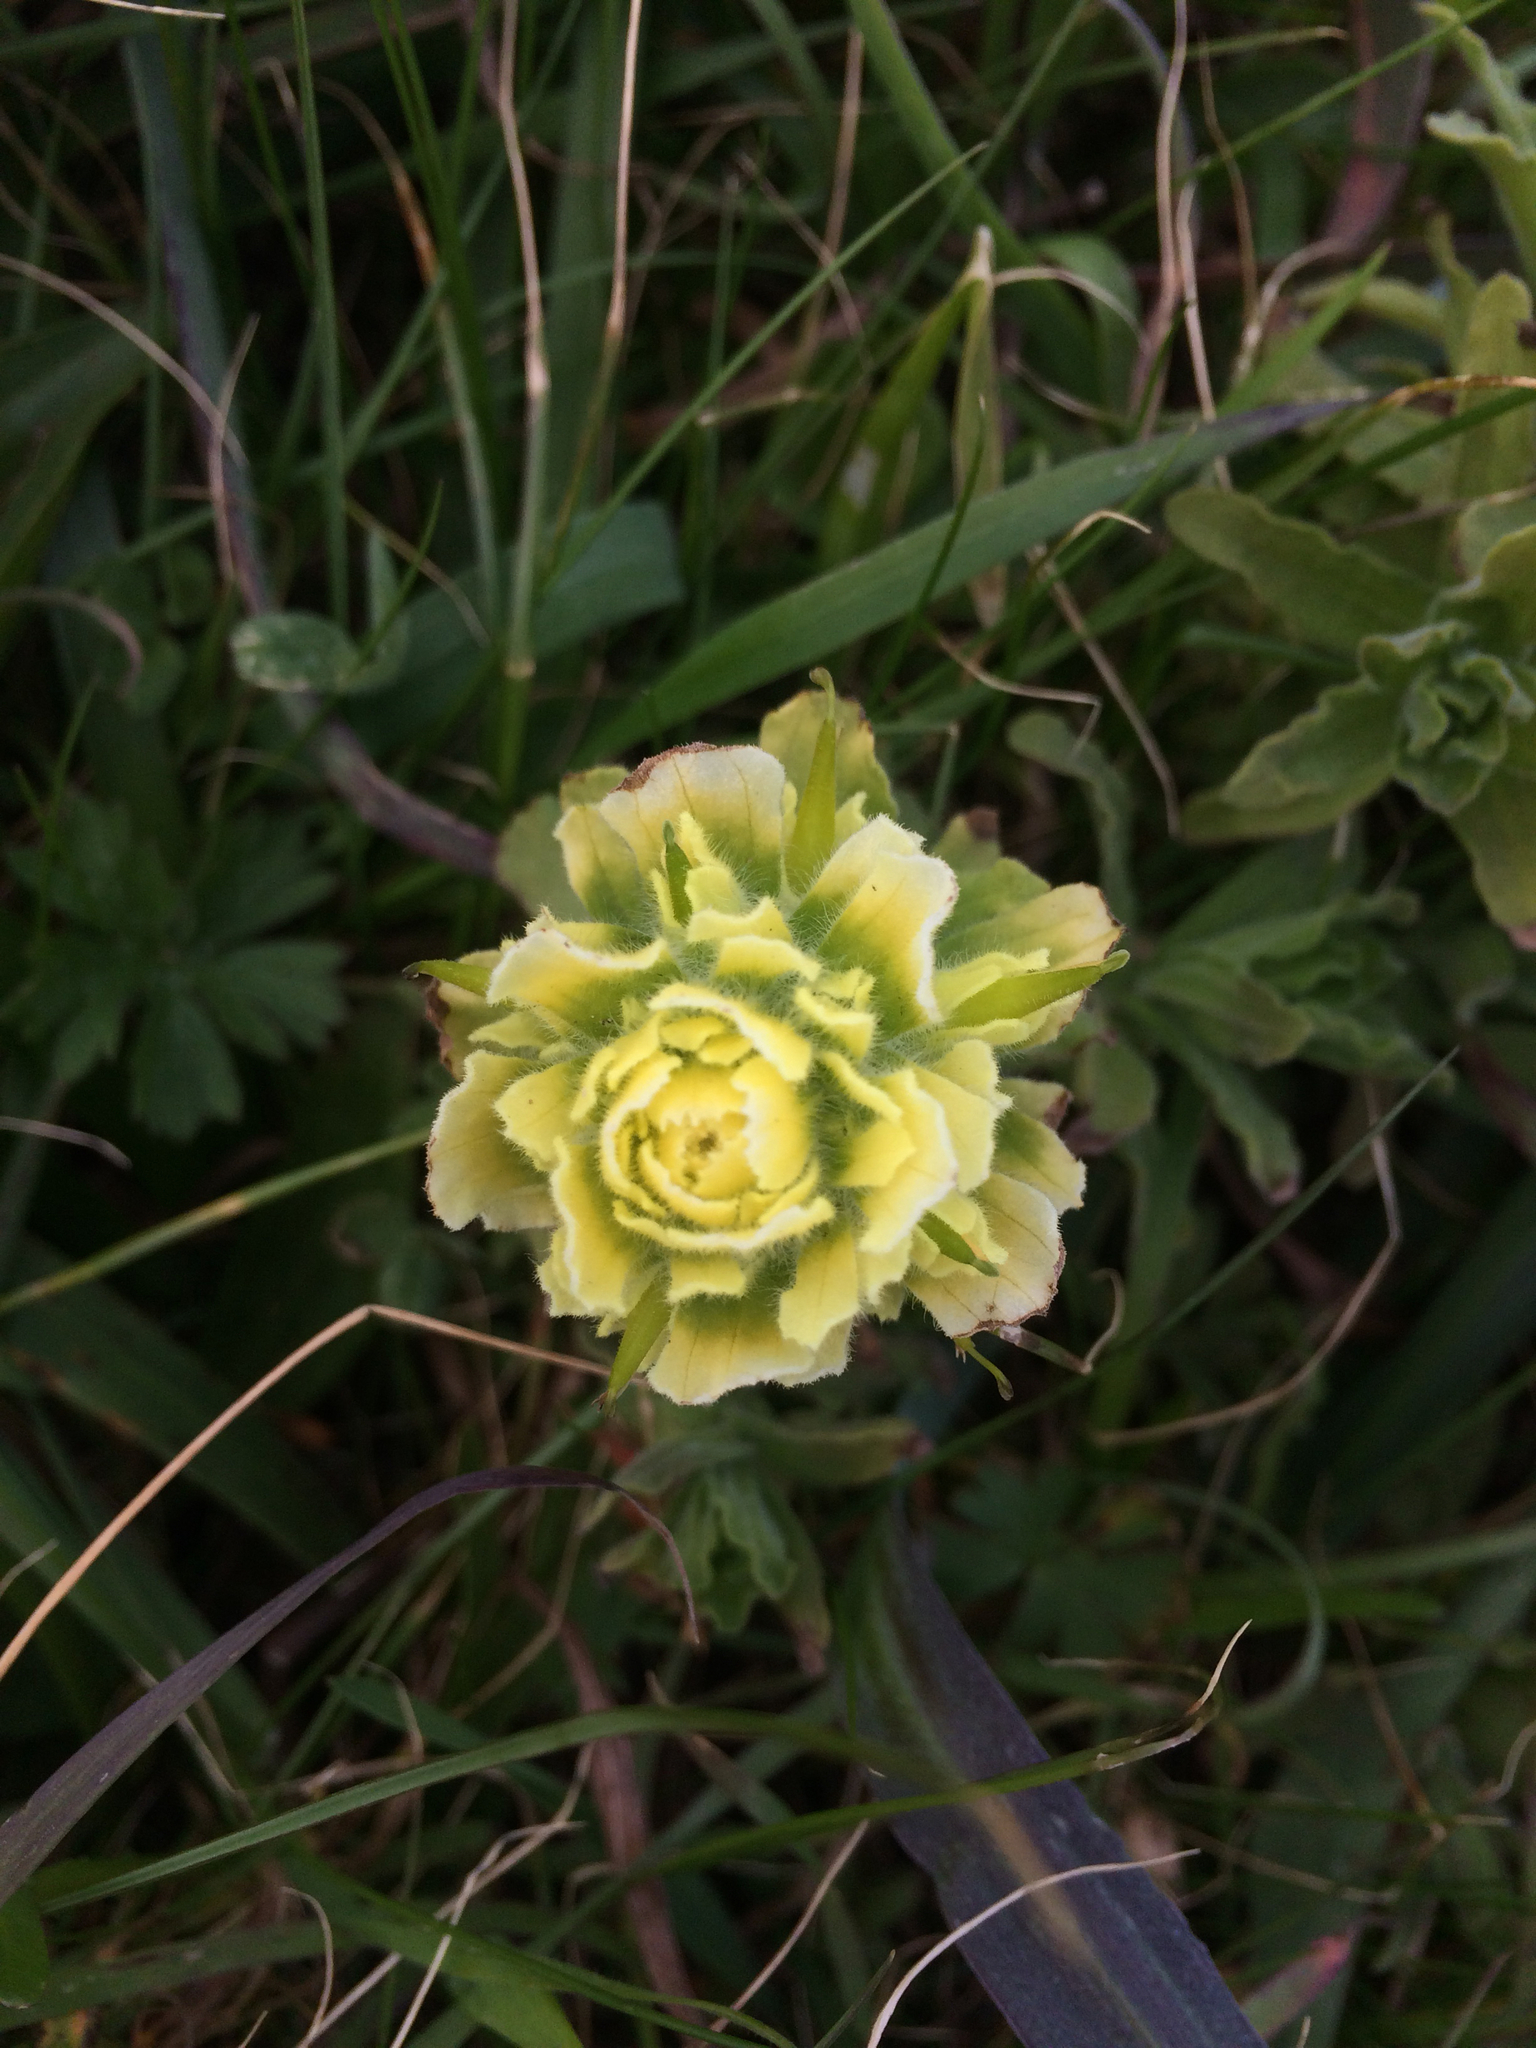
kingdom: Plantae
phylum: Tracheophyta
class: Magnoliopsida
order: Lamiales
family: Orobanchaceae
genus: Castilleja
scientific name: Castilleja wightii
